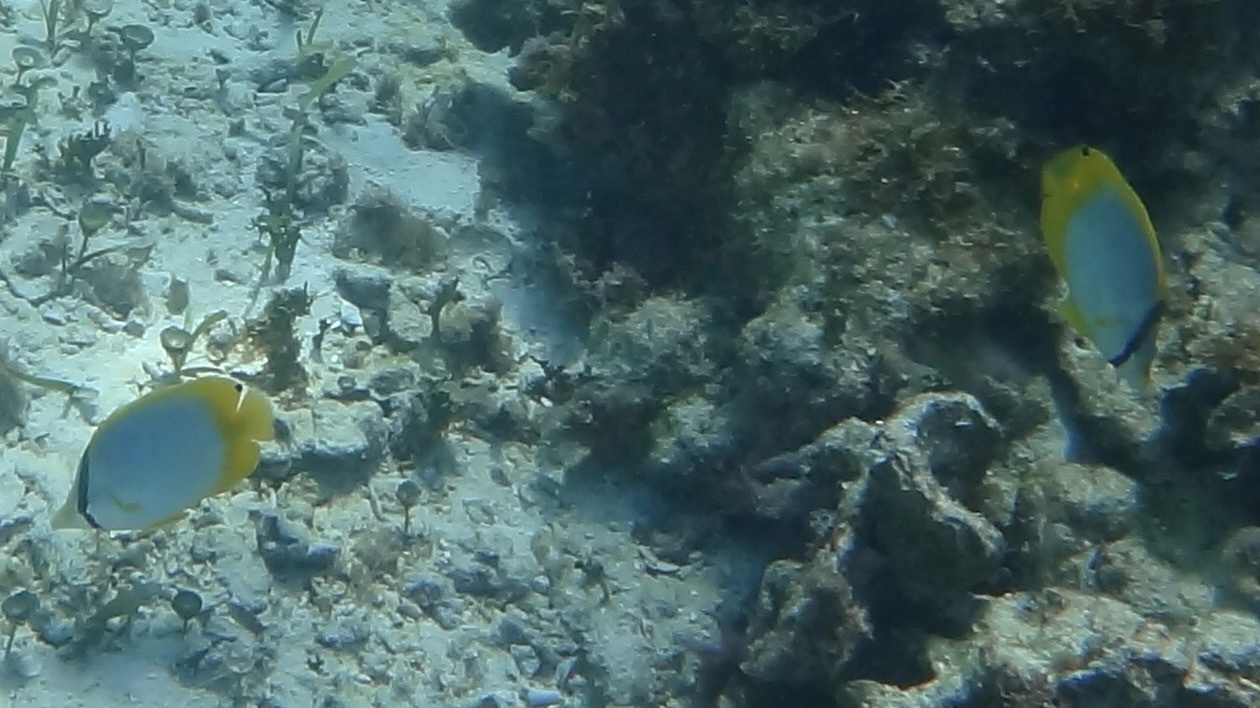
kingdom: Animalia
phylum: Chordata
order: Perciformes
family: Chaetodontidae
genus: Chaetodon
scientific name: Chaetodon ocellatus
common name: Spotfin butterflyfish
